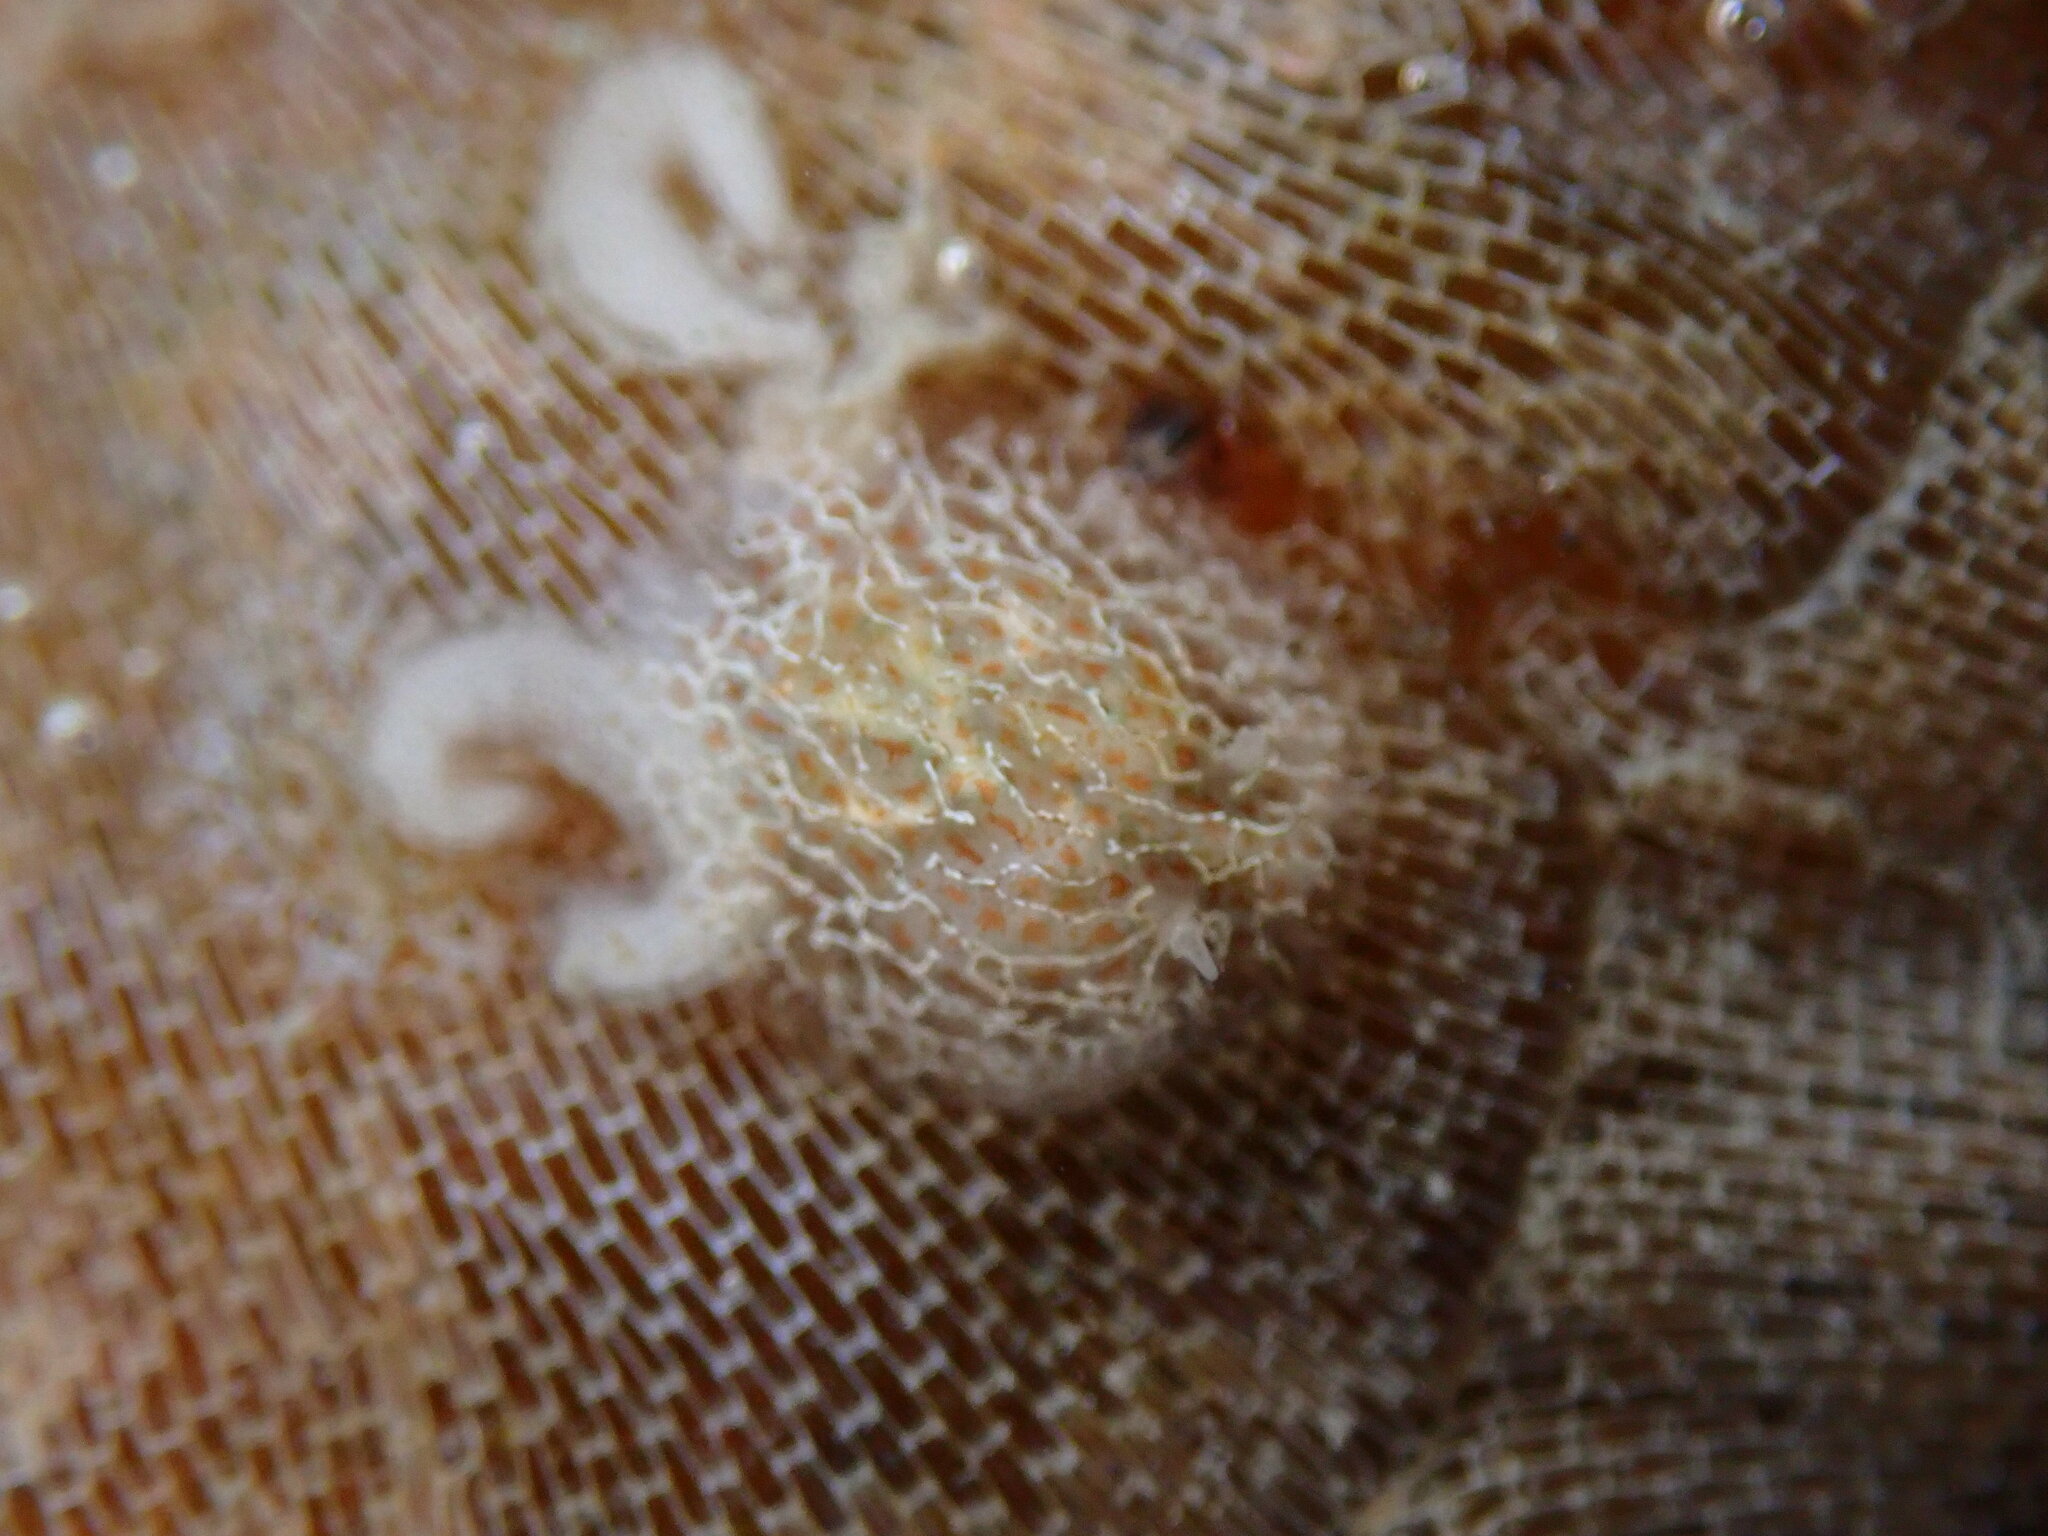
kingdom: Animalia
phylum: Mollusca
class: Gastropoda
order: Nudibranchia
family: Corambidae
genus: Corambe
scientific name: Corambe steinbergae
